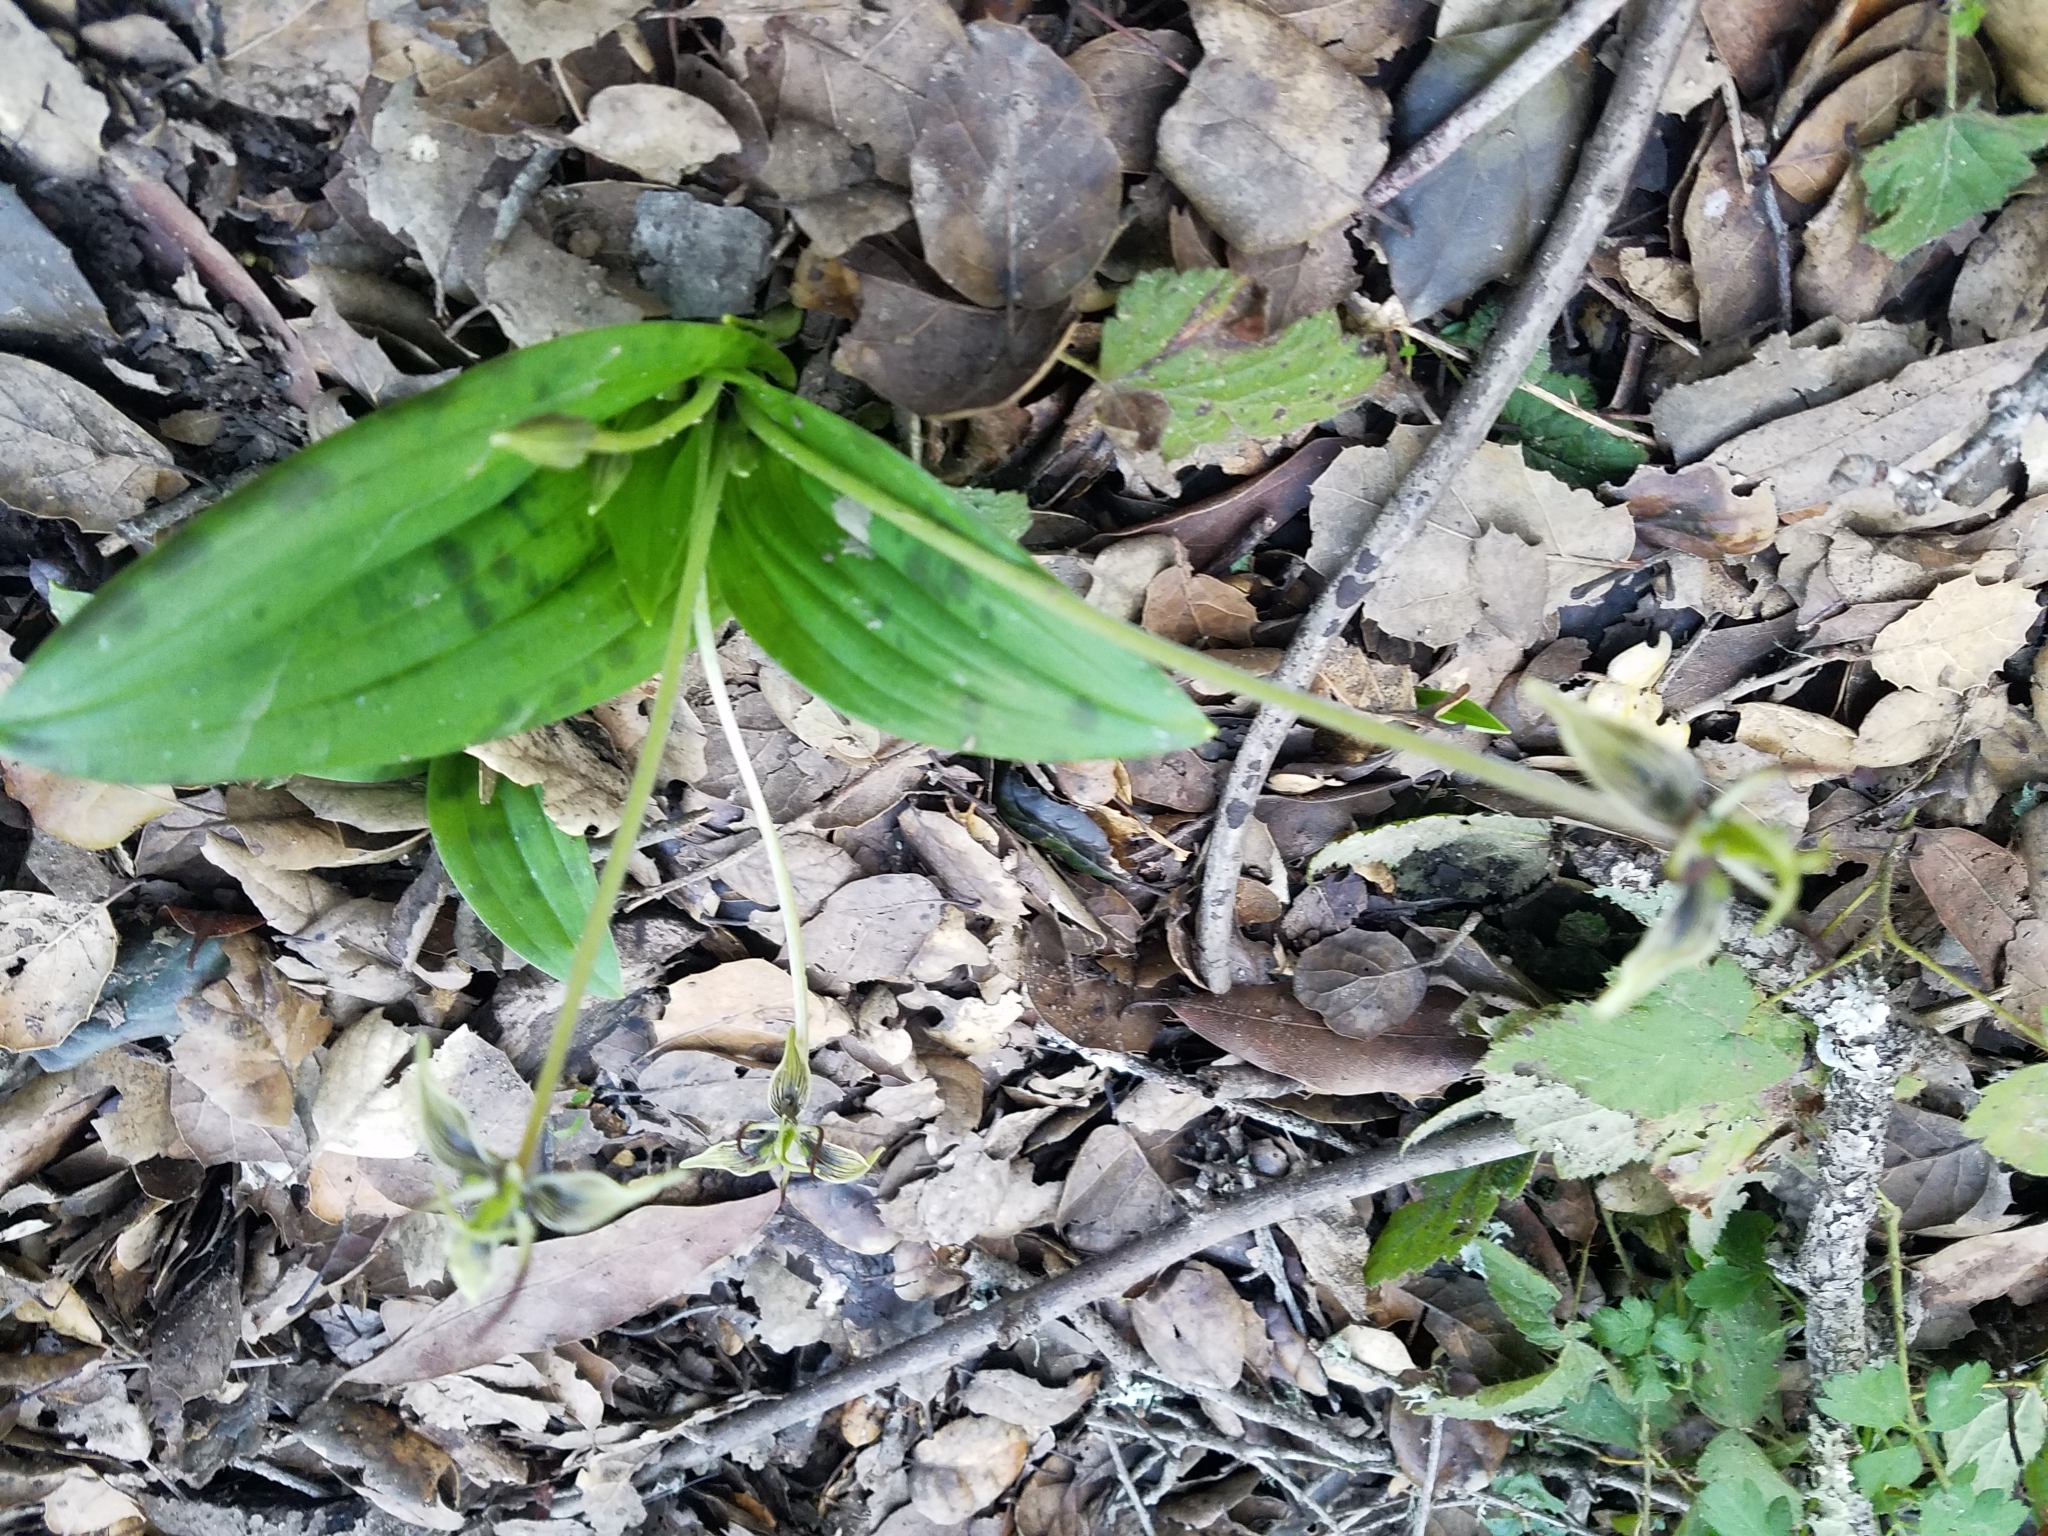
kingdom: Plantae
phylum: Tracheophyta
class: Liliopsida
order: Liliales
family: Liliaceae
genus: Scoliopus
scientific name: Scoliopus bigelovii
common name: Foetid adder's-tongue
